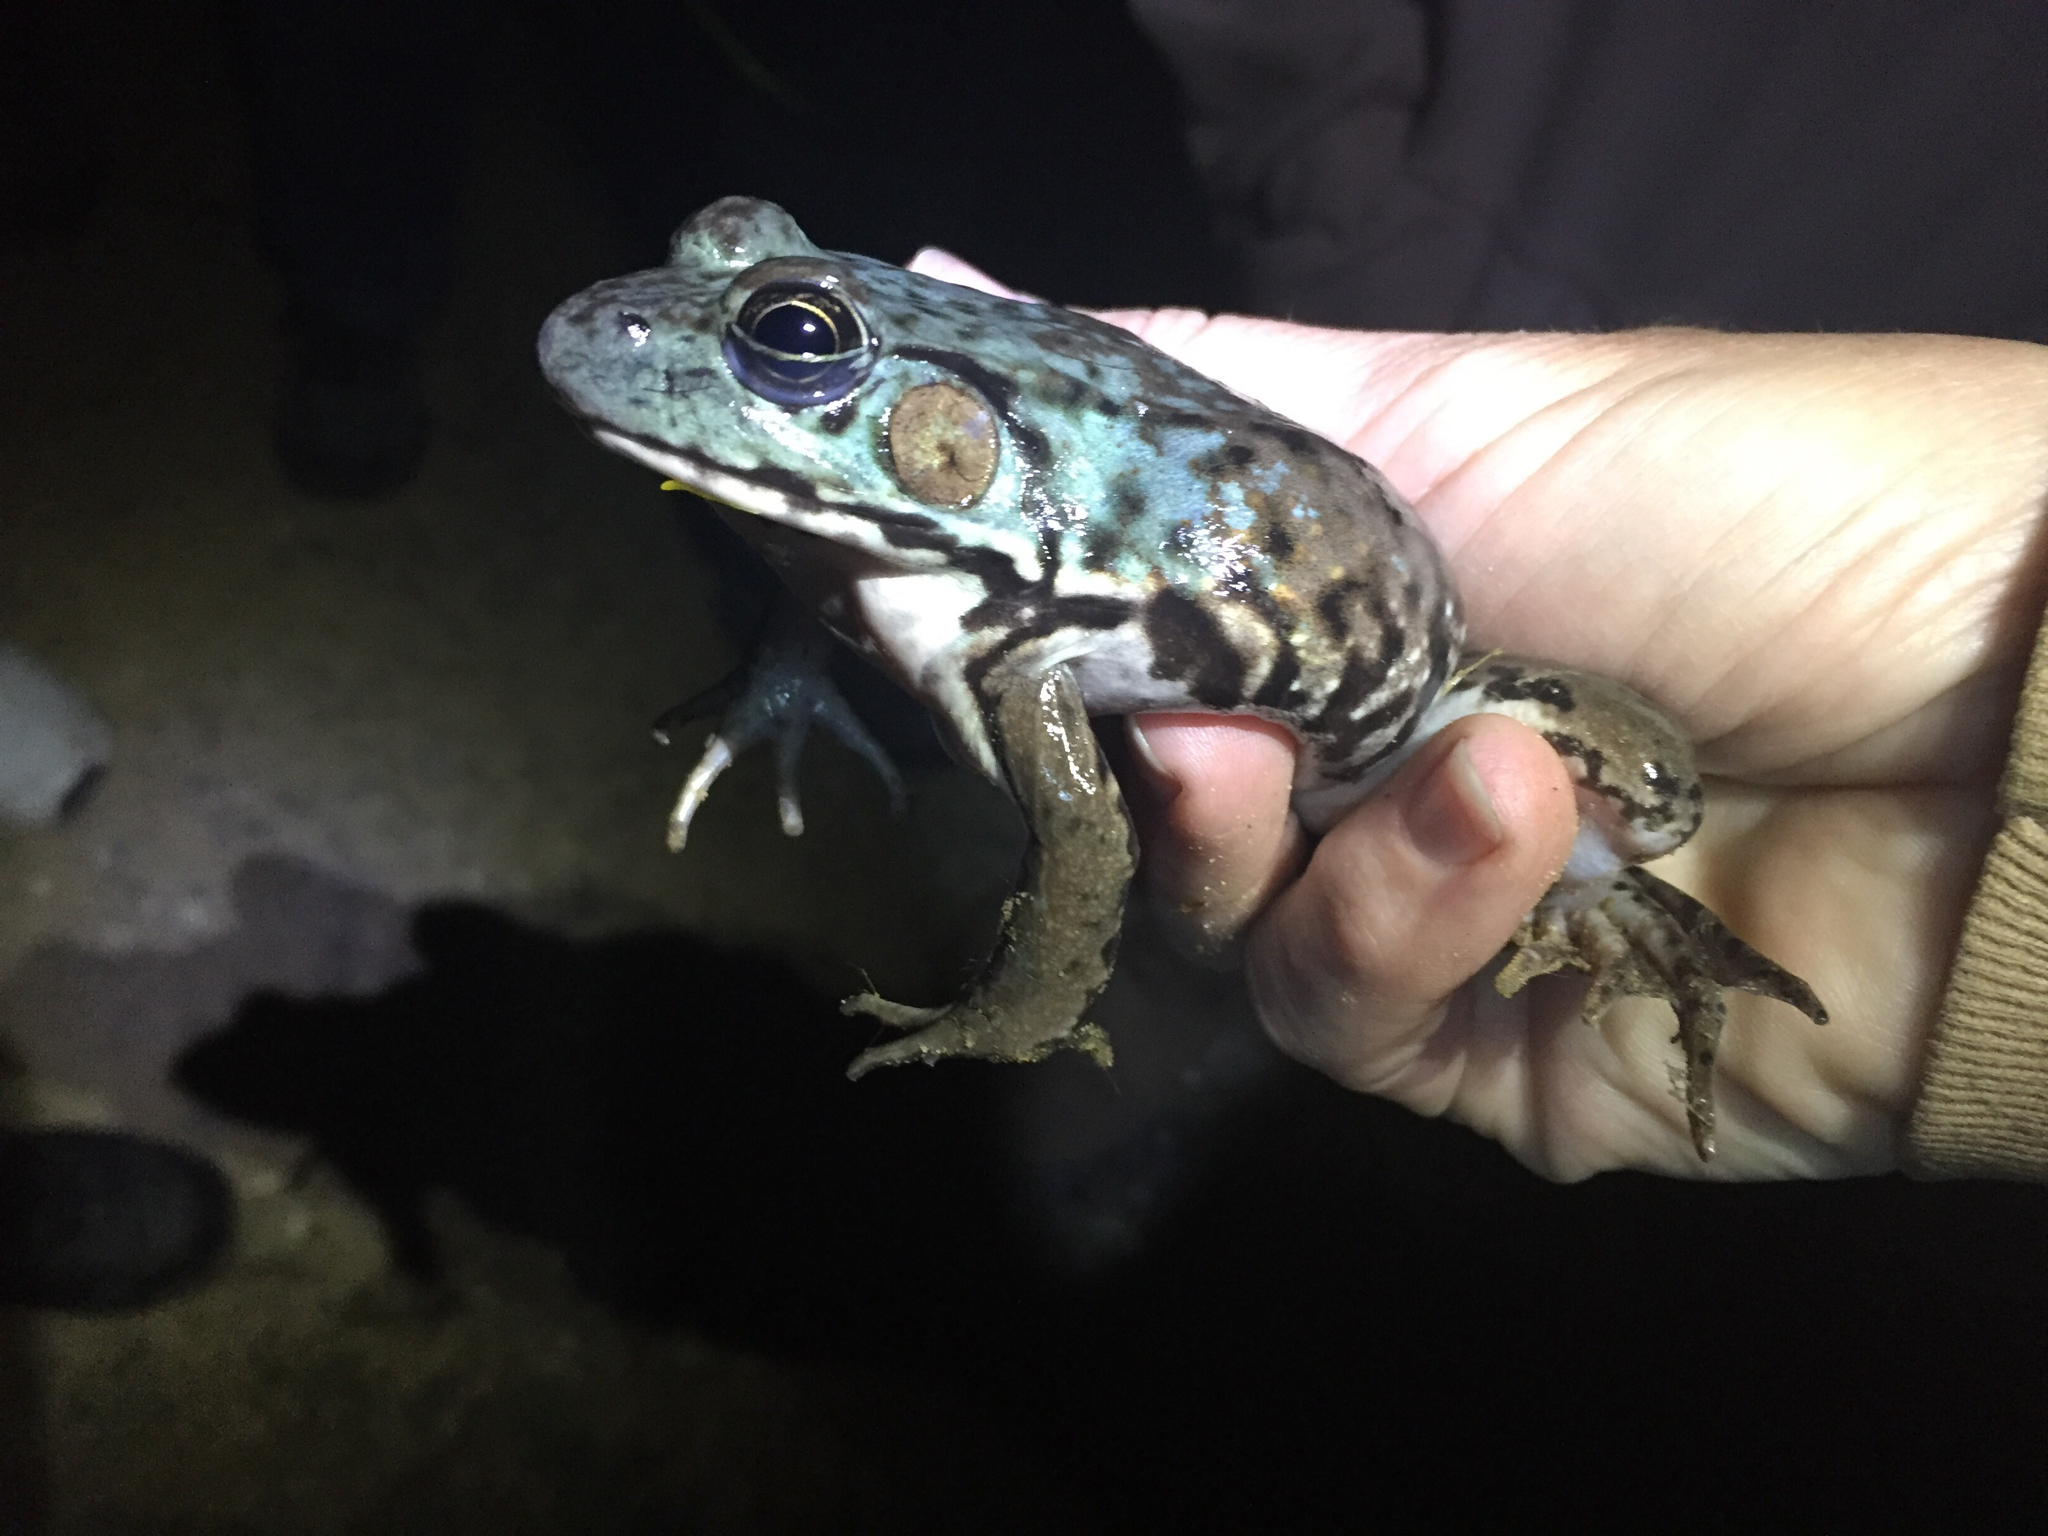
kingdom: Animalia
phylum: Chordata
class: Amphibia
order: Anura
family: Ranidae
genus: Lithobates
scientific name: Lithobates clamitans
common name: Green frog
